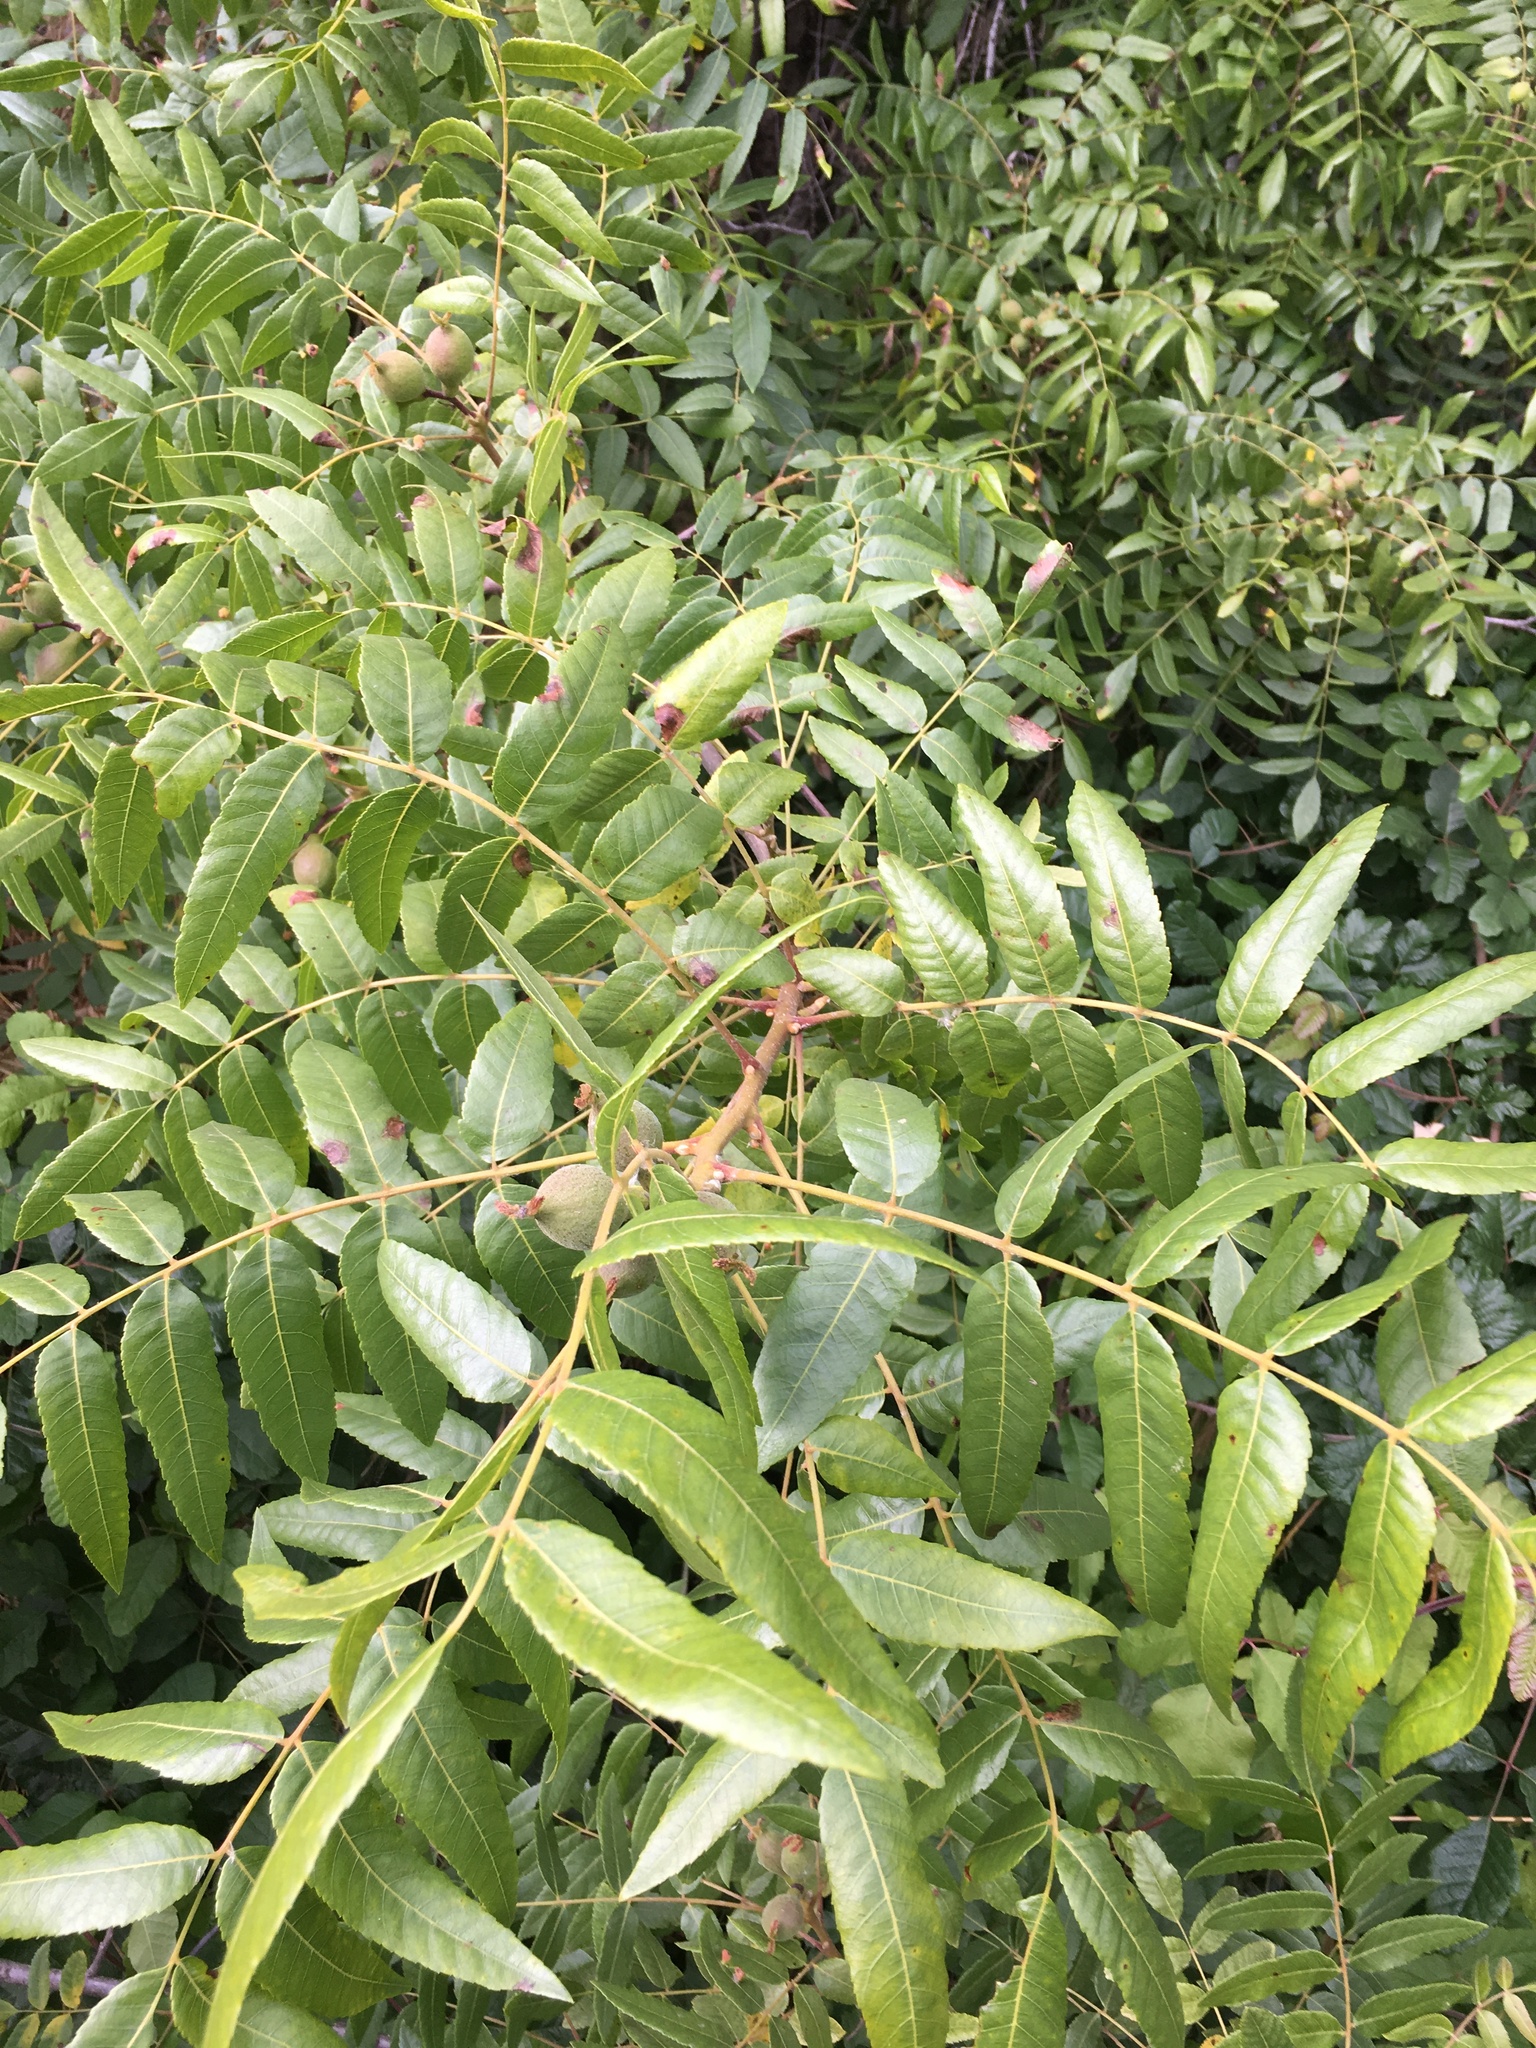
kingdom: Plantae
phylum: Tracheophyta
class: Magnoliopsida
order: Fagales
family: Juglandaceae
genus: Juglans
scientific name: Juglans californica
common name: Southern california black walnut
